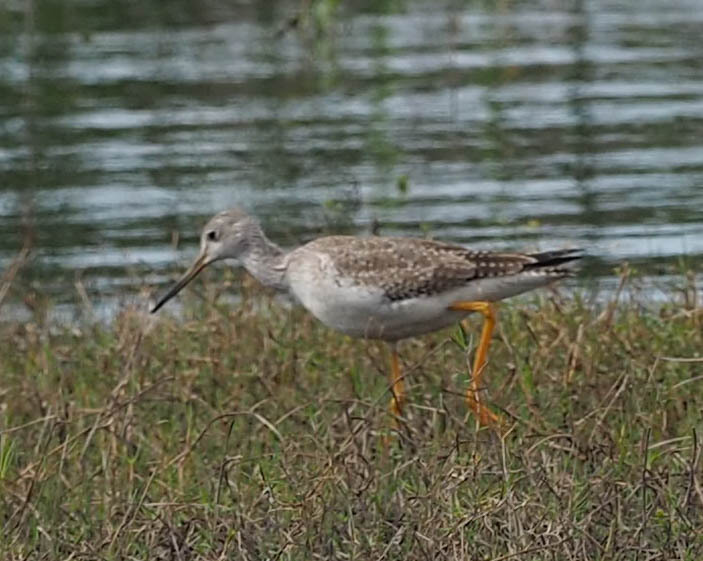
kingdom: Animalia
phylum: Chordata
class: Aves
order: Charadriiformes
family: Scolopacidae
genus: Tringa
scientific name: Tringa melanoleuca
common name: Greater yellowlegs
